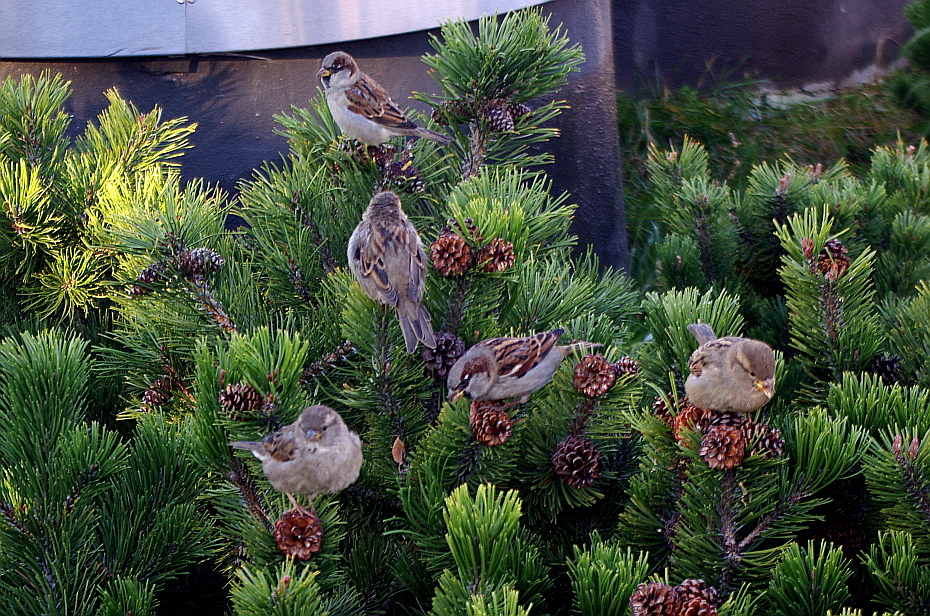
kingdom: Animalia
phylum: Chordata
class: Aves
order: Passeriformes
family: Passeridae
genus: Passer
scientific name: Passer domesticus
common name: House sparrow
